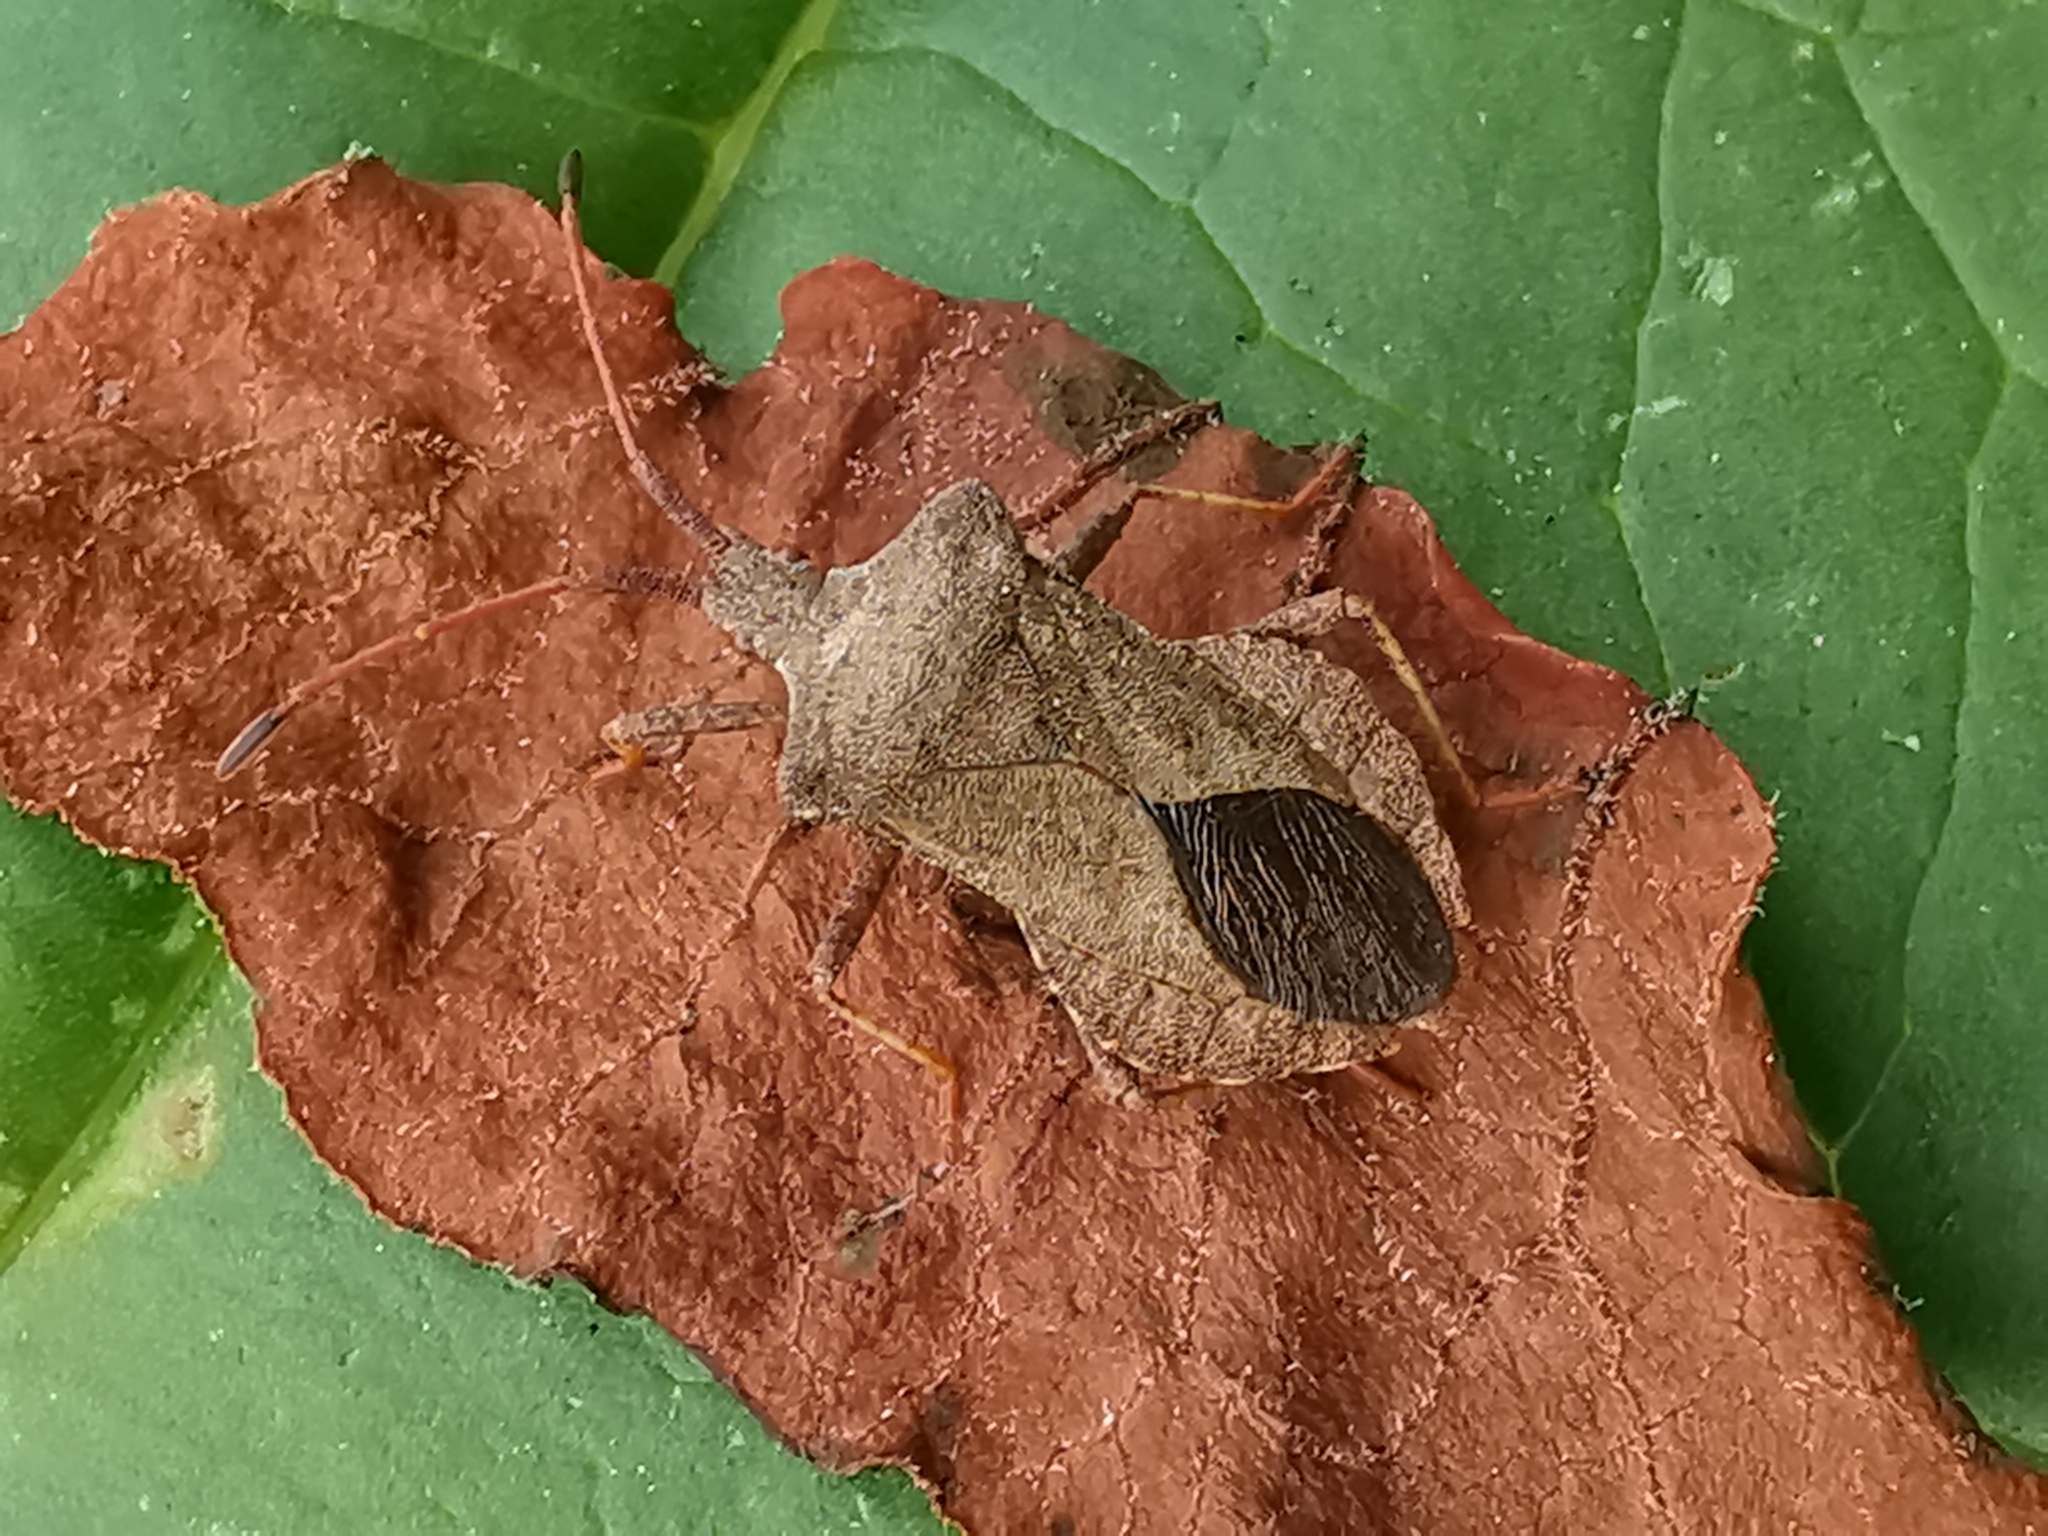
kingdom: Animalia
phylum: Arthropoda
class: Insecta
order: Hemiptera
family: Coreidae
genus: Coreus
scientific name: Coreus marginatus
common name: Dock bug
